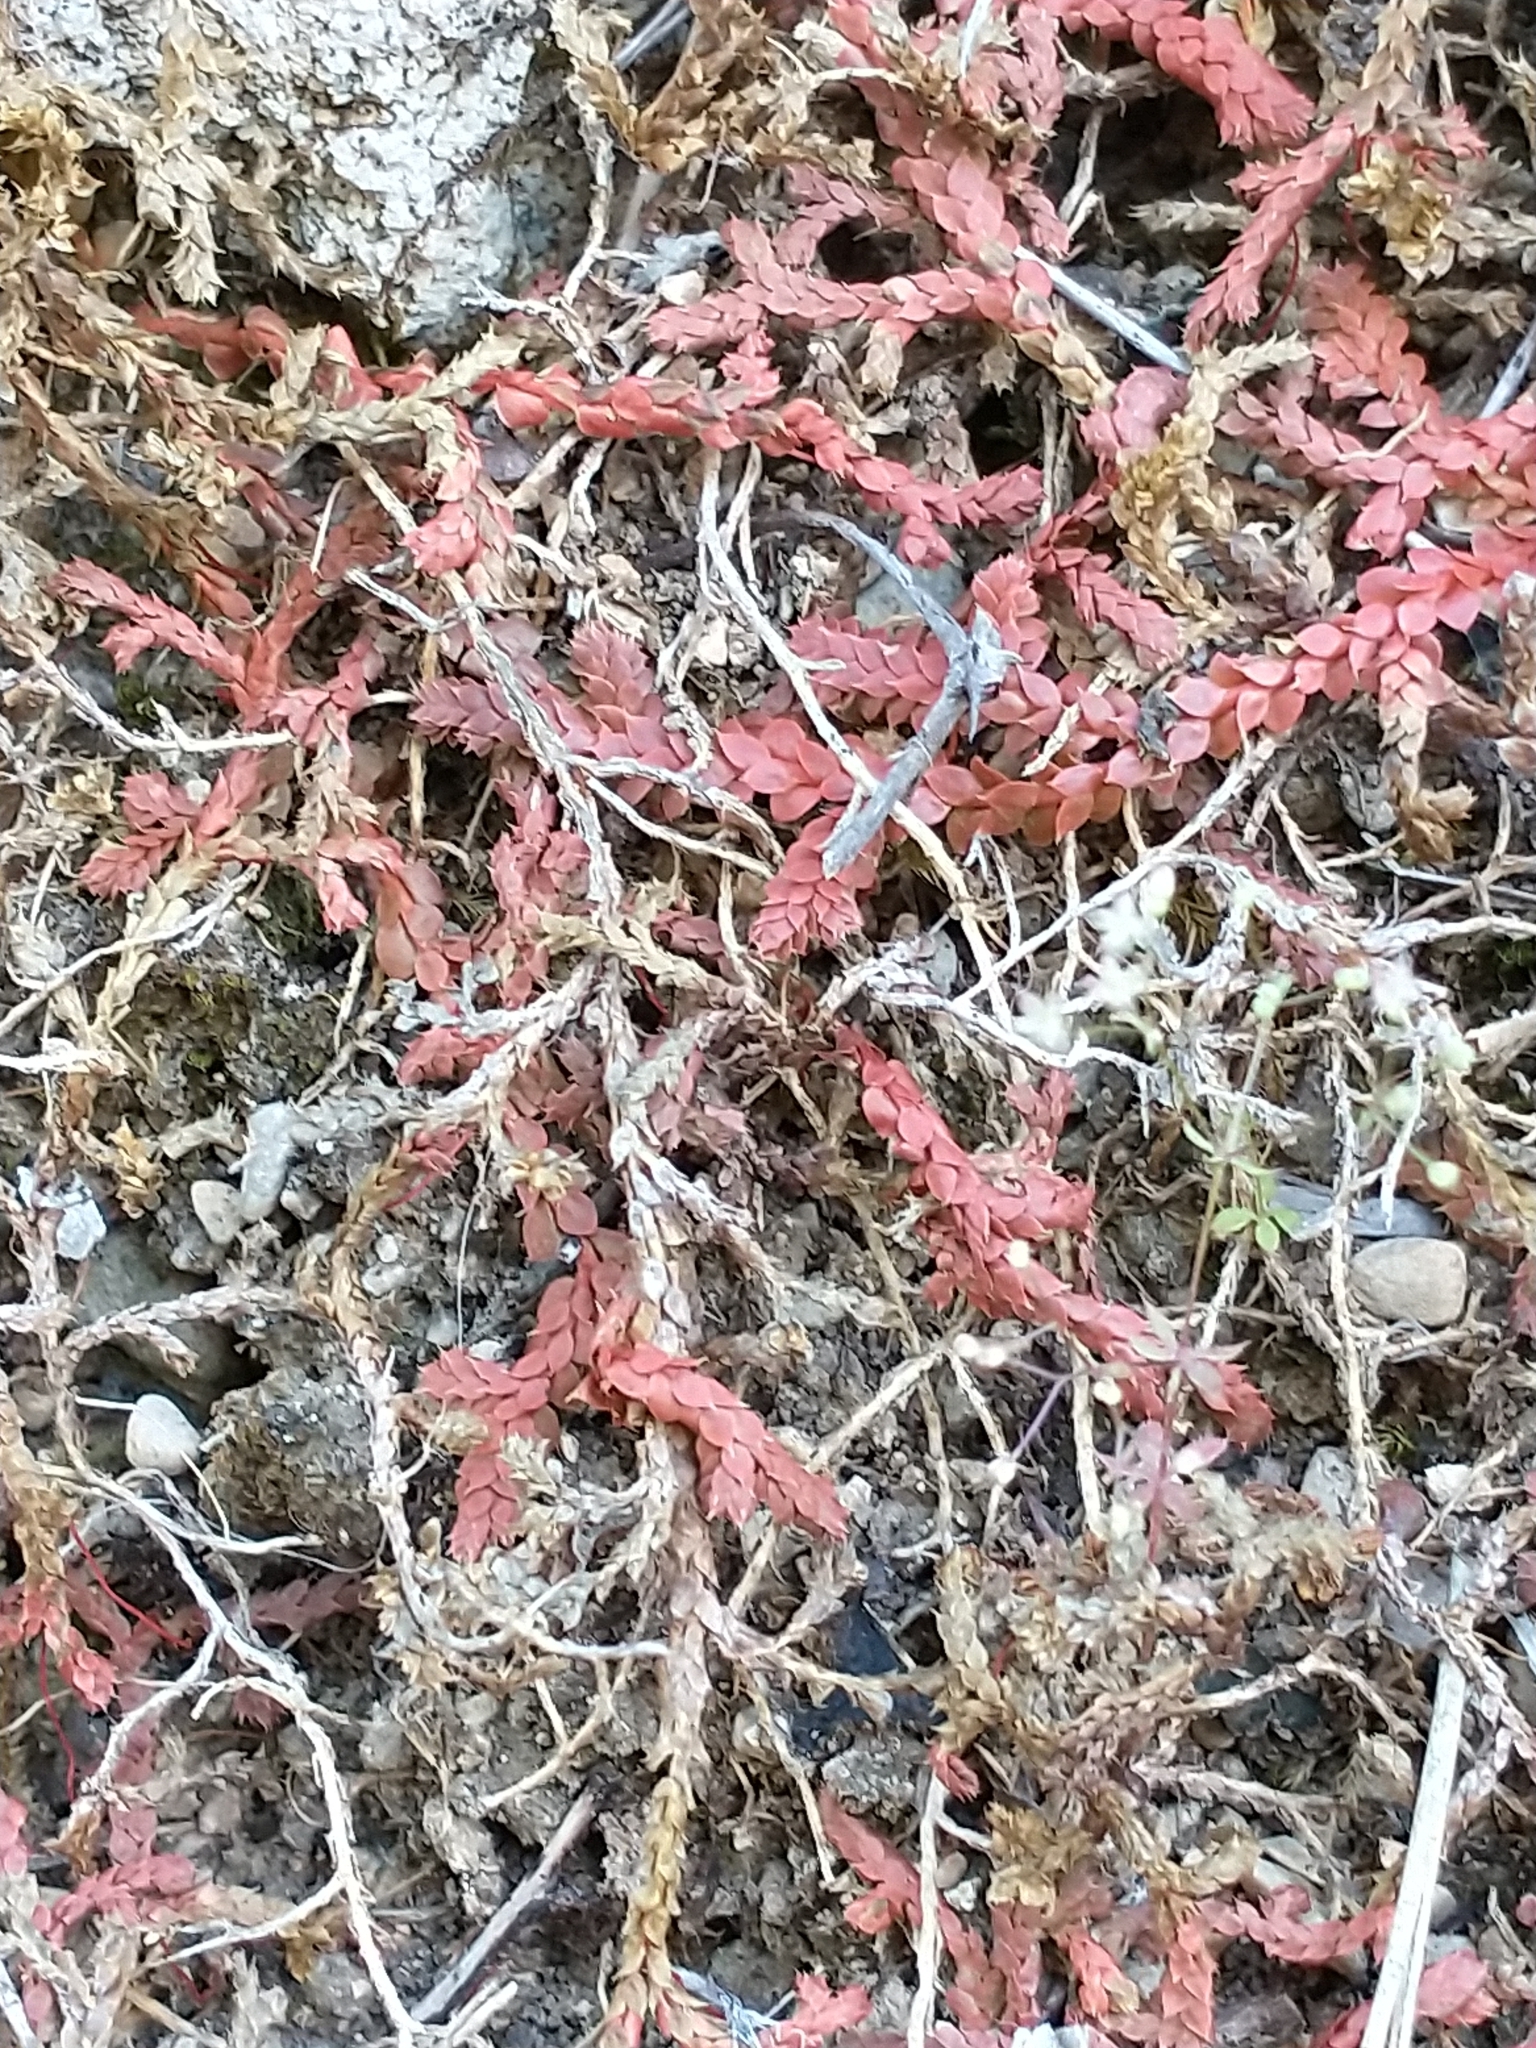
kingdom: Plantae
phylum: Tracheophyta
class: Lycopodiopsida
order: Selaginellales
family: Selaginellaceae
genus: Selaginella
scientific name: Selaginella denticulata
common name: Toothed-leaved clubmoss
